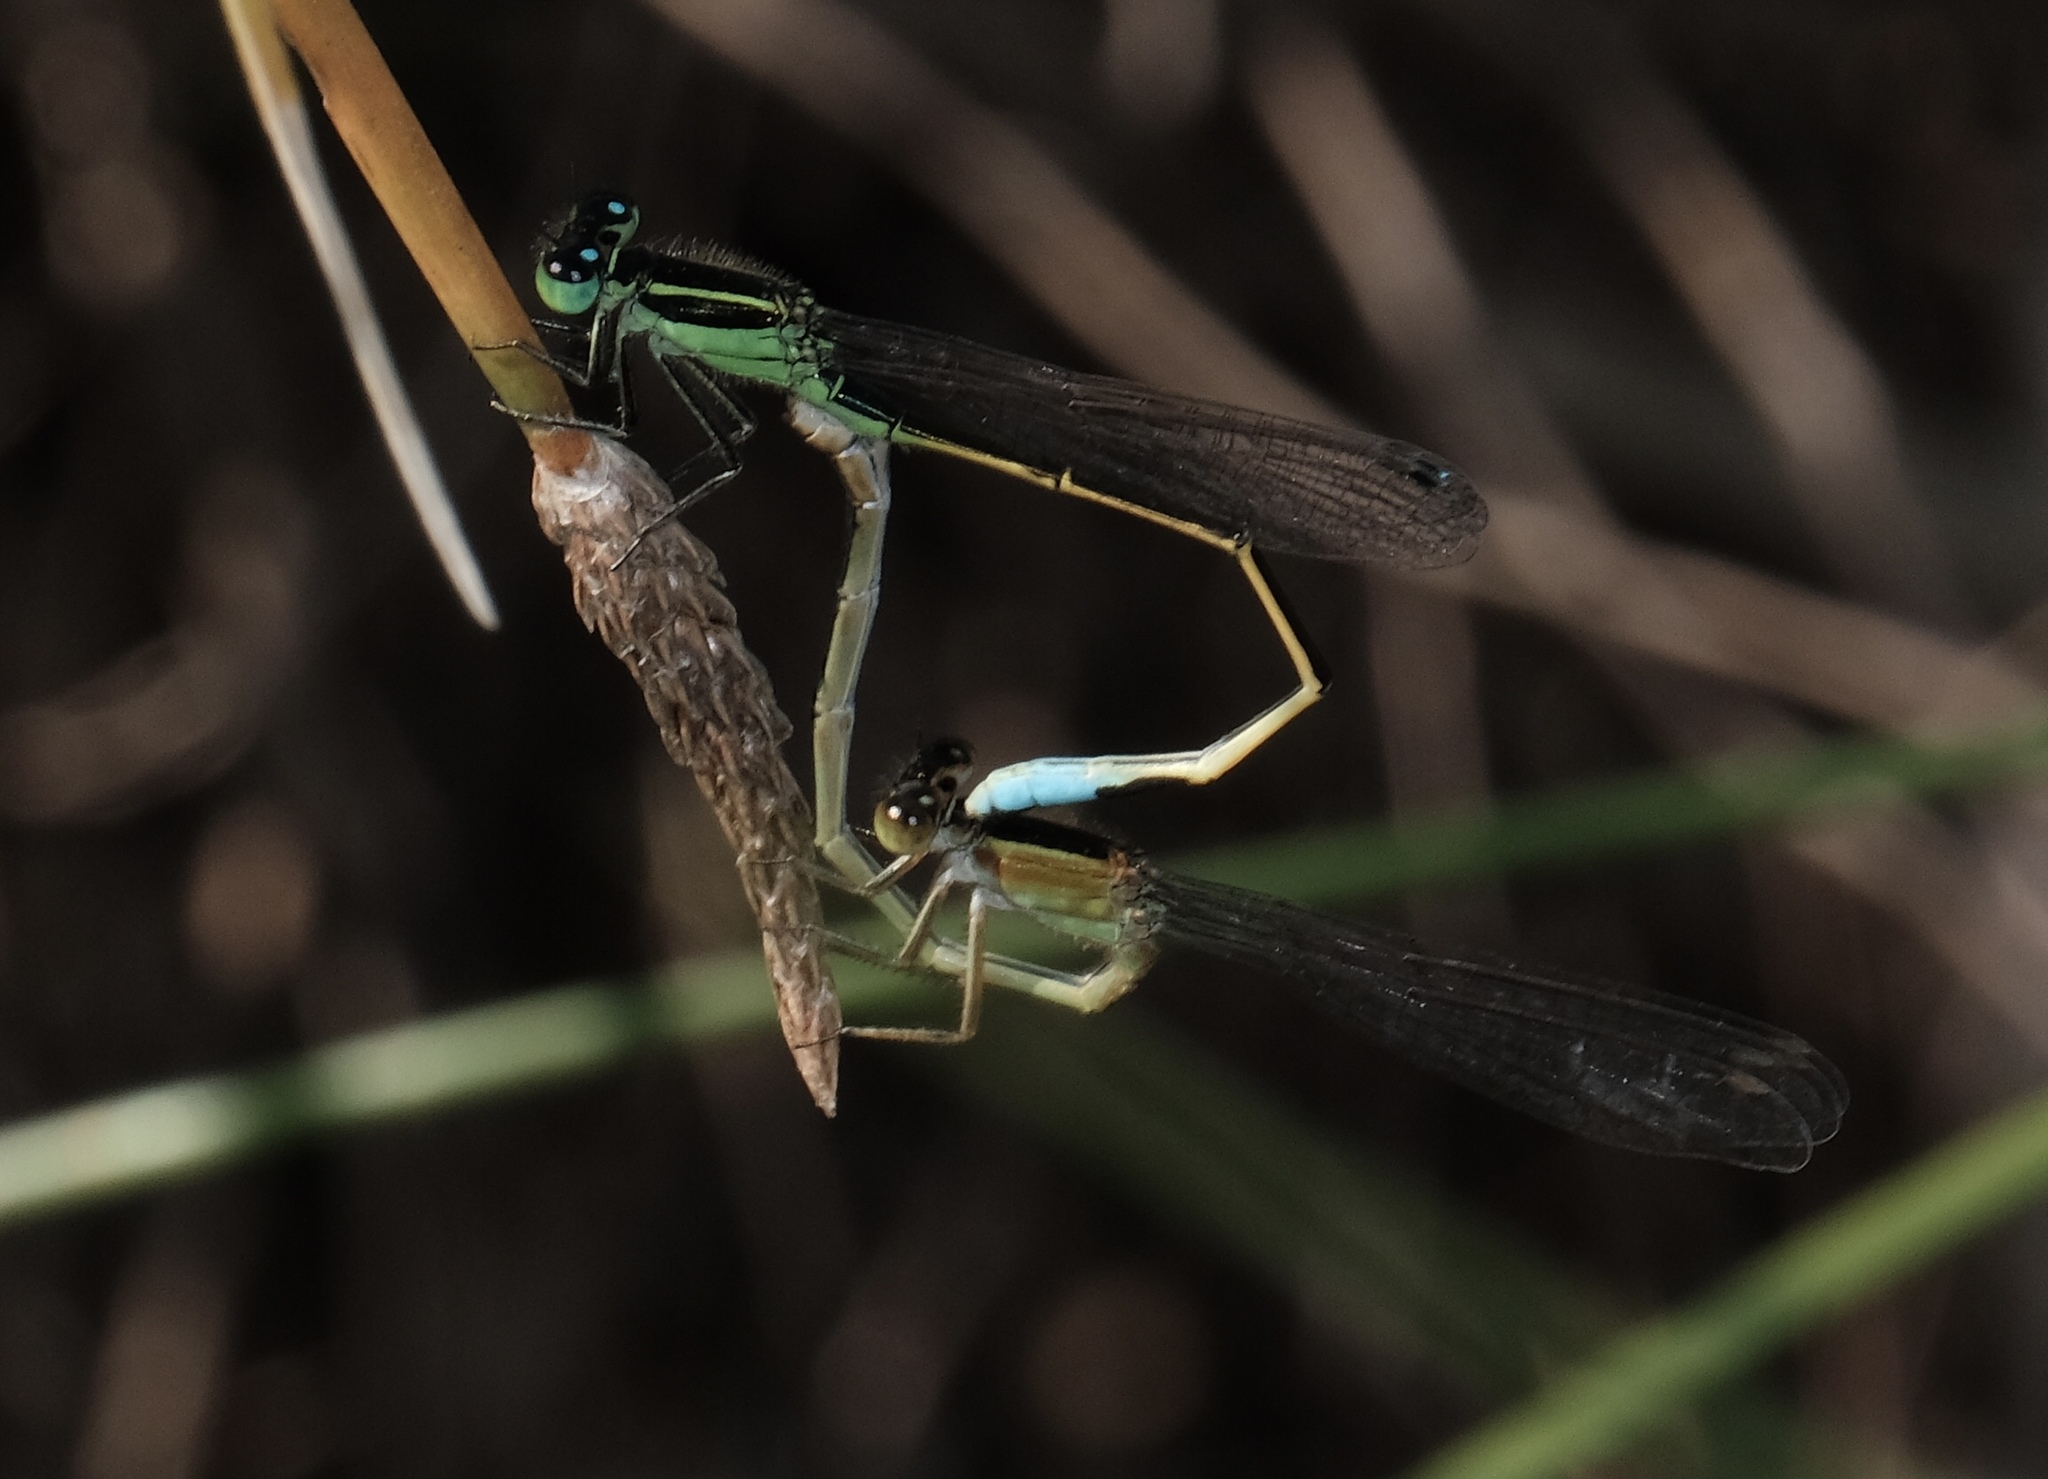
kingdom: Animalia
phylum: Arthropoda
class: Insecta
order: Odonata
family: Coenagrionidae
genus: Ischnura
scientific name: Ischnura ramburii
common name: Rambur's forktail
